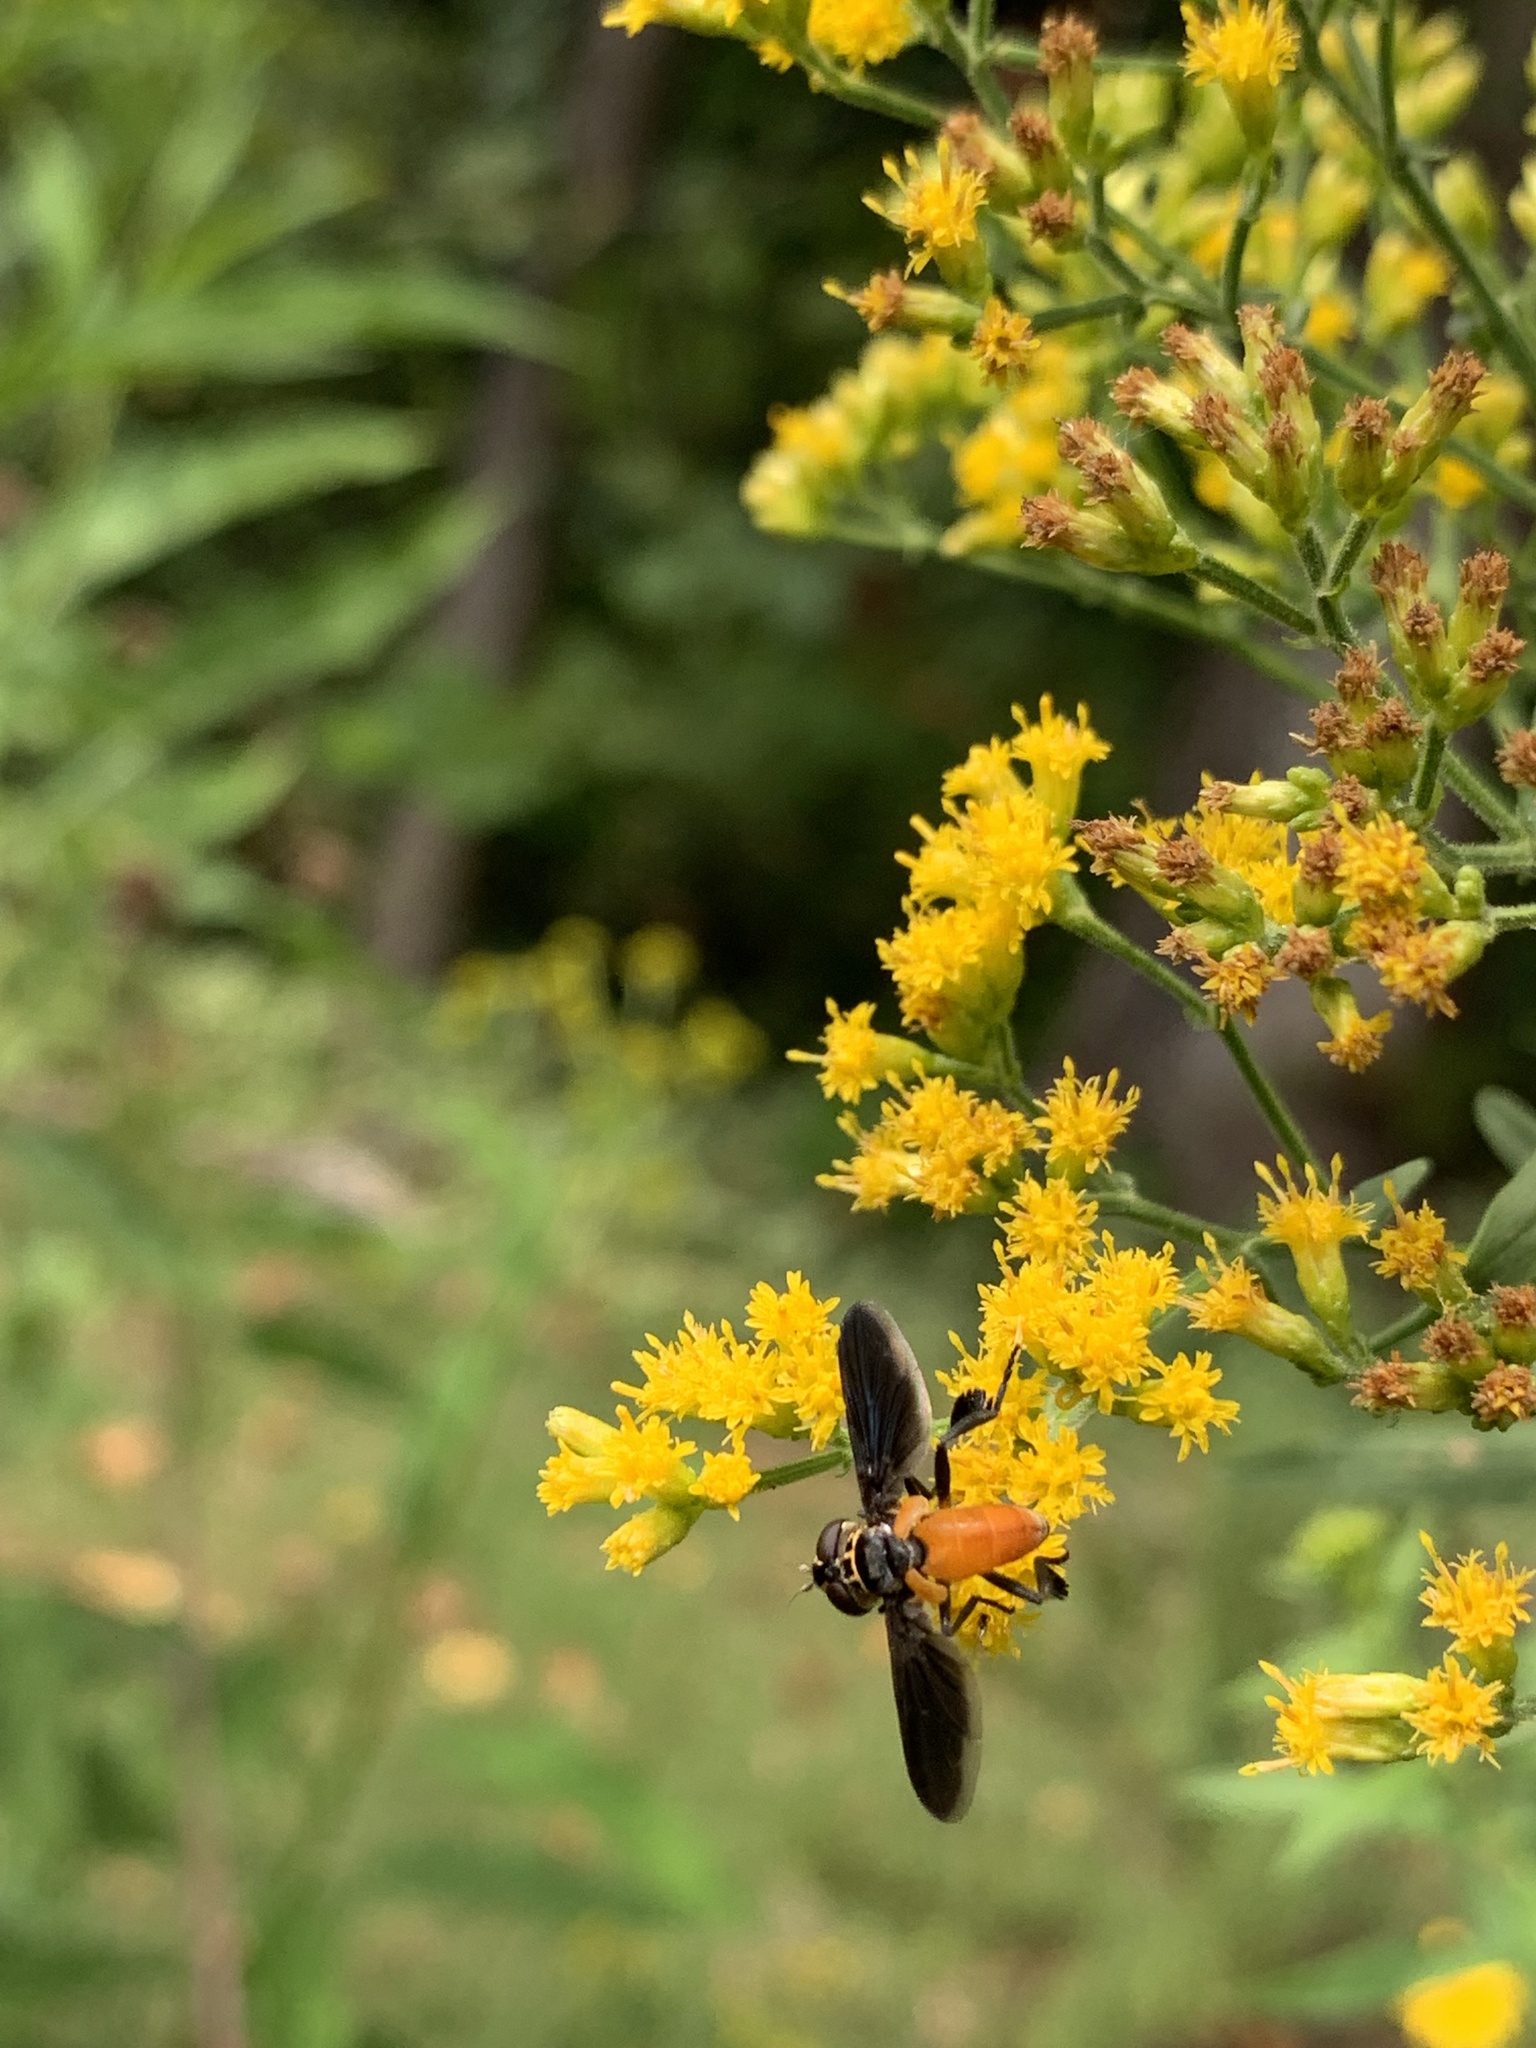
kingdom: Animalia
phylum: Arthropoda
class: Insecta
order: Diptera
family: Tachinidae
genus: Trichopoda
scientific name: Trichopoda pennipes
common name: Tachinid fly
